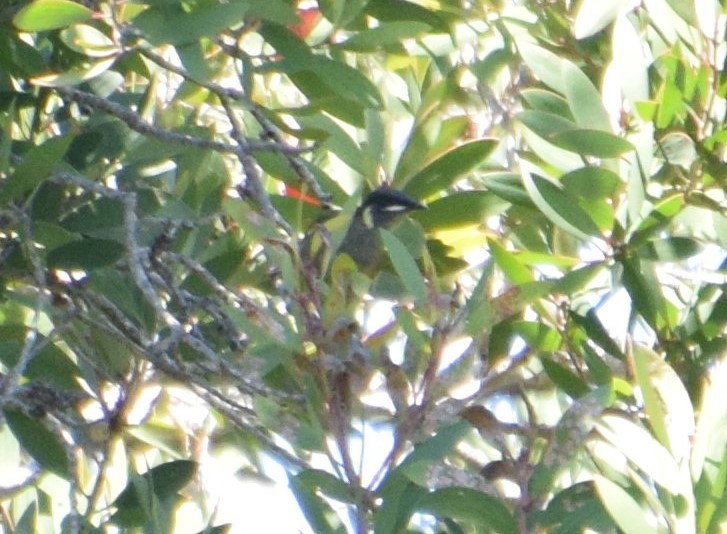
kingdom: Animalia
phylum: Chordata
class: Aves
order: Passeriformes
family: Meliphagidae
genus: Meliphaga
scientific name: Meliphaga lewinii
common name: Lewin's honeyeater
